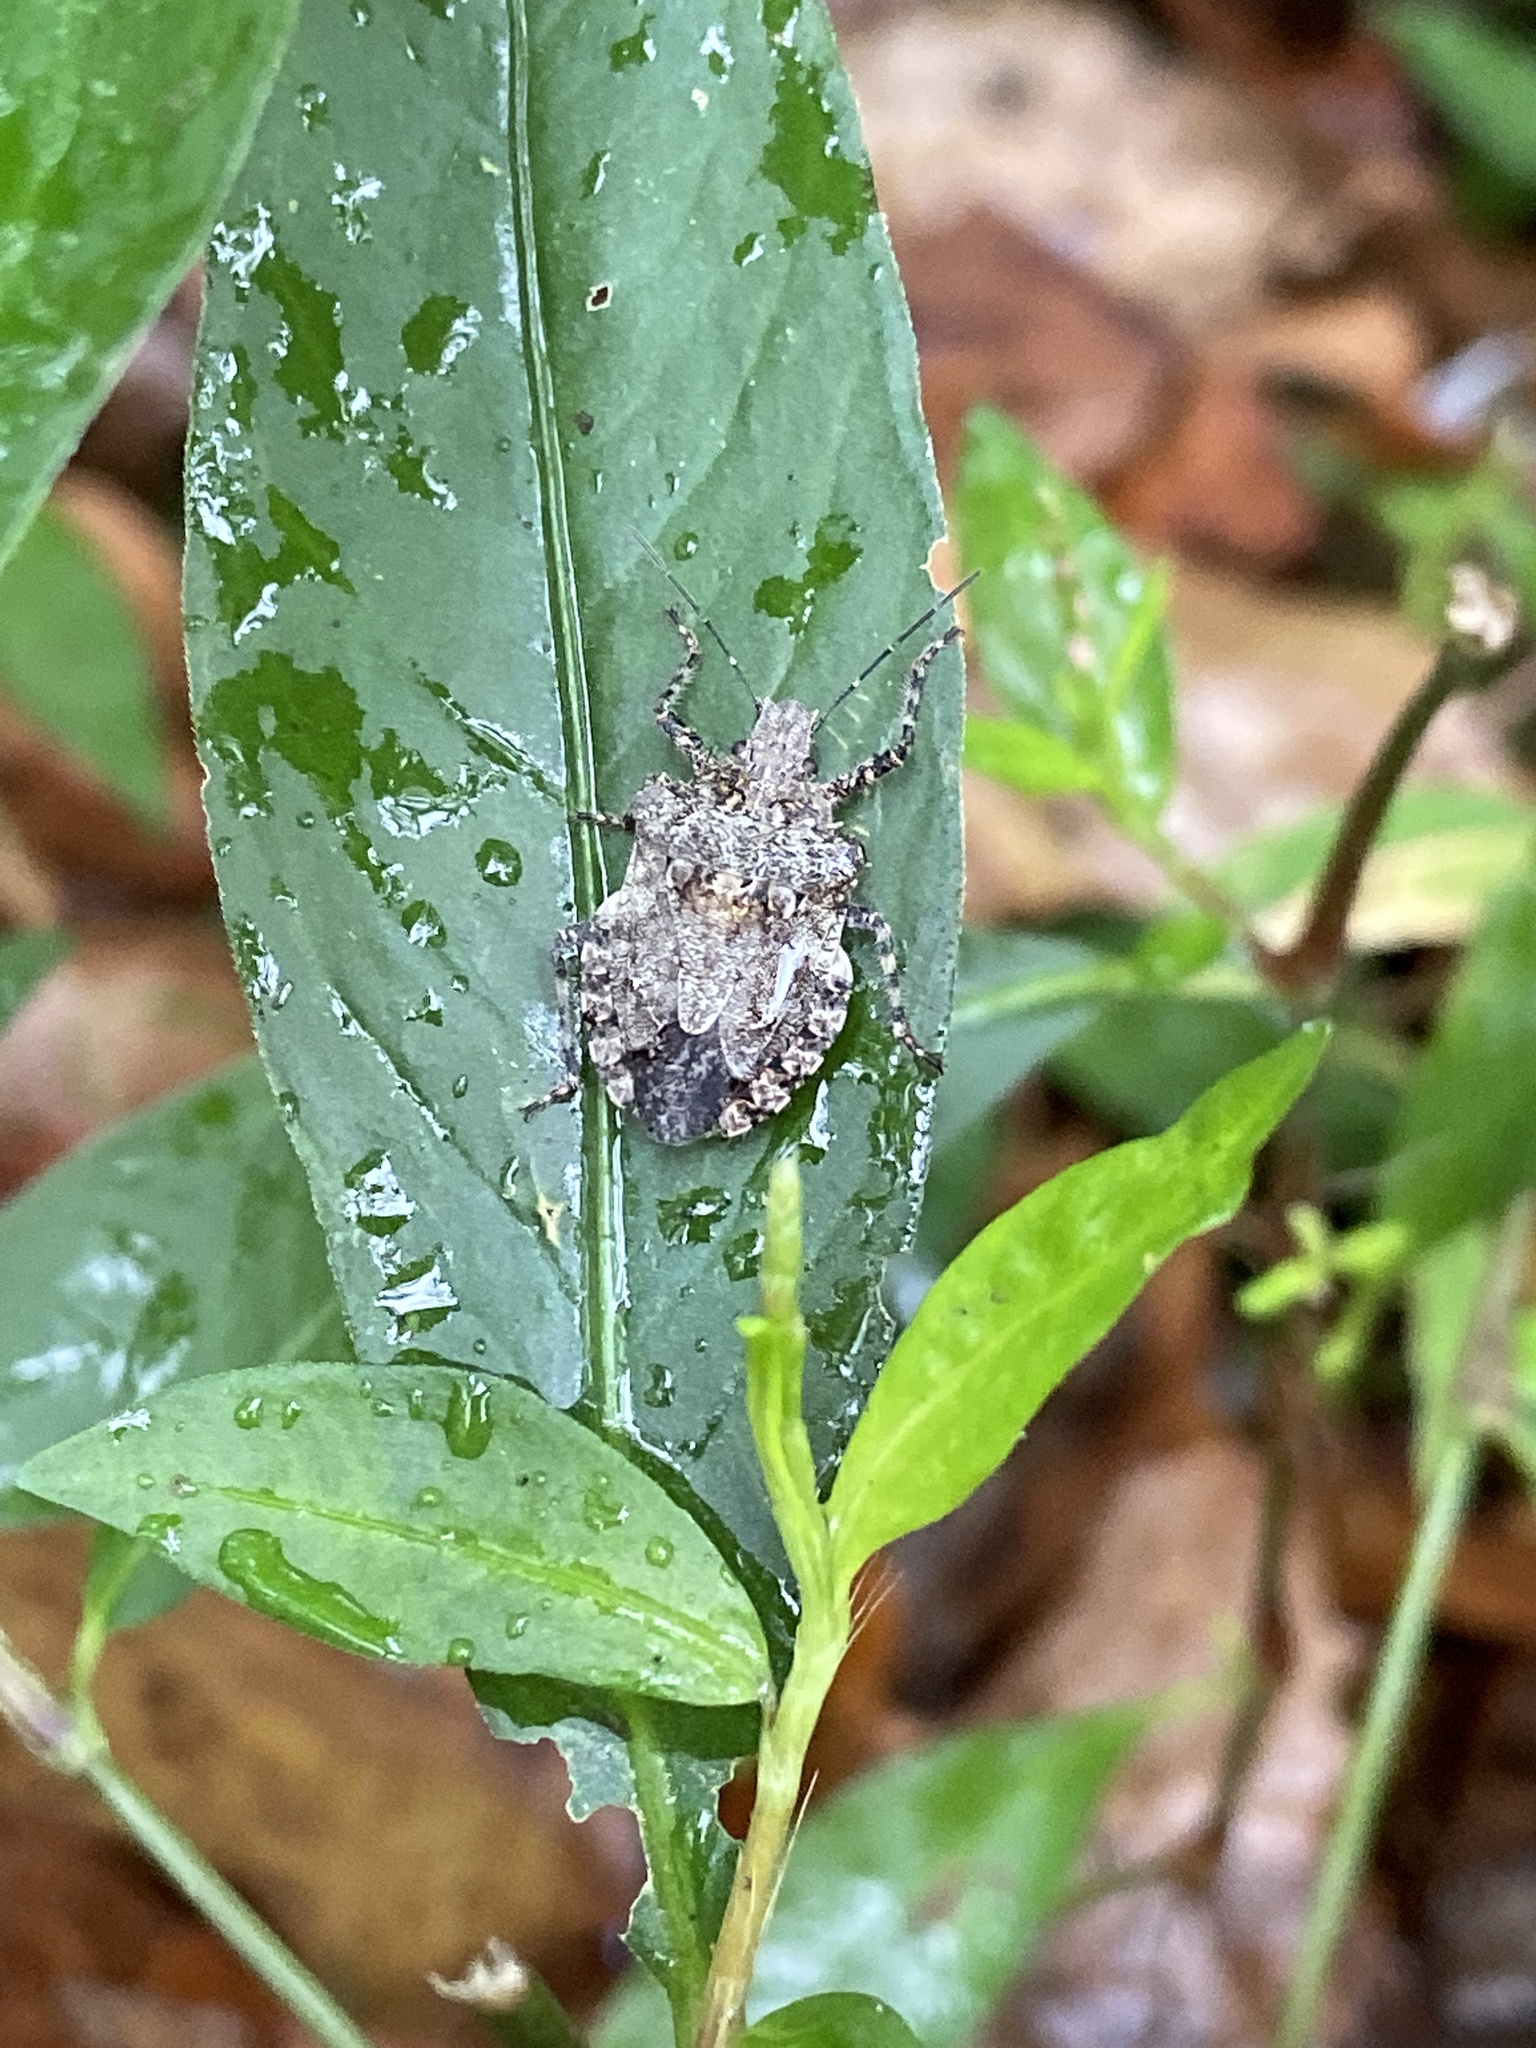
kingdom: Animalia
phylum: Arthropoda
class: Insecta
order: Hemiptera
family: Pentatomidae
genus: Brochymena
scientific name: Brochymena arborea
